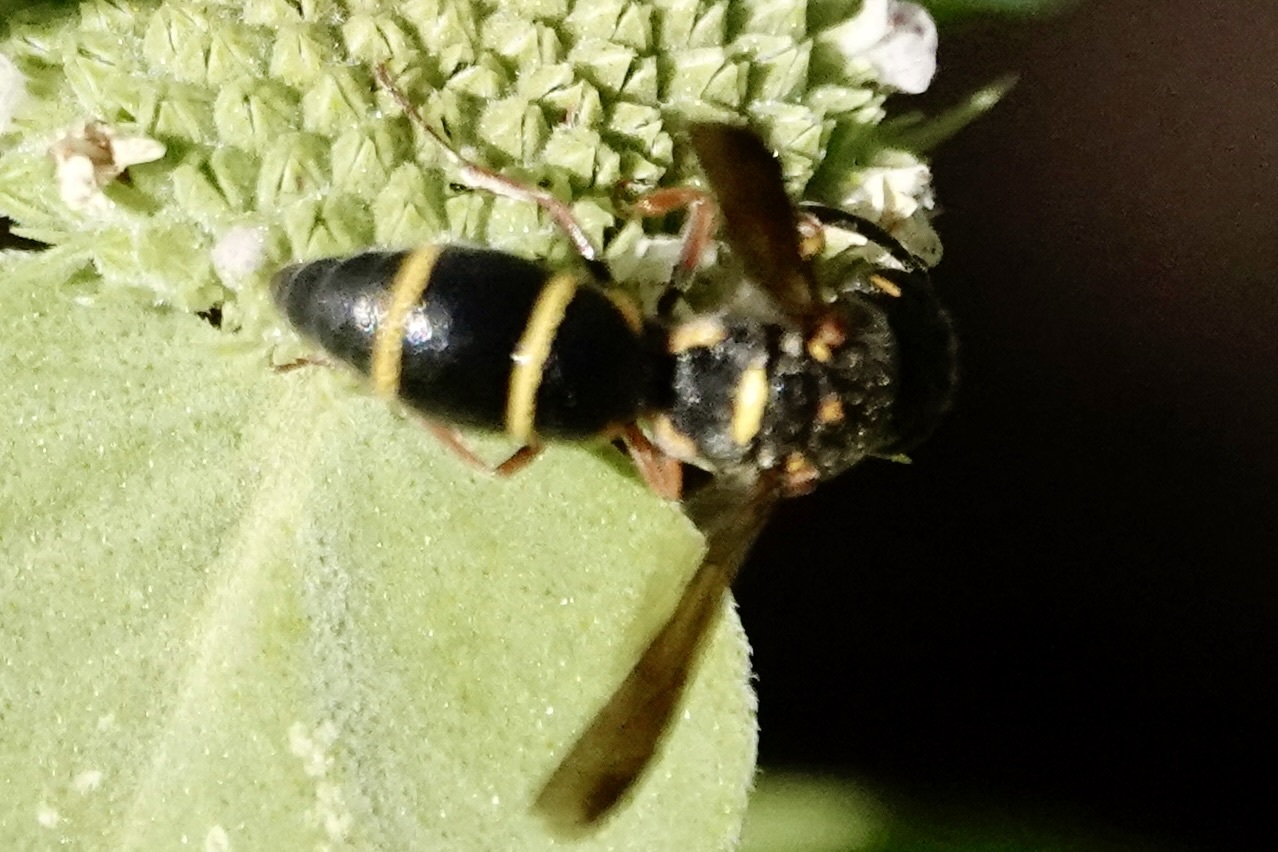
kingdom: Animalia
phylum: Arthropoda
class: Insecta
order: Hymenoptera
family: Eumenidae
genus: Parancistrocerus
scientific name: Parancistrocerus fulvipes
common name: Potter wasp
